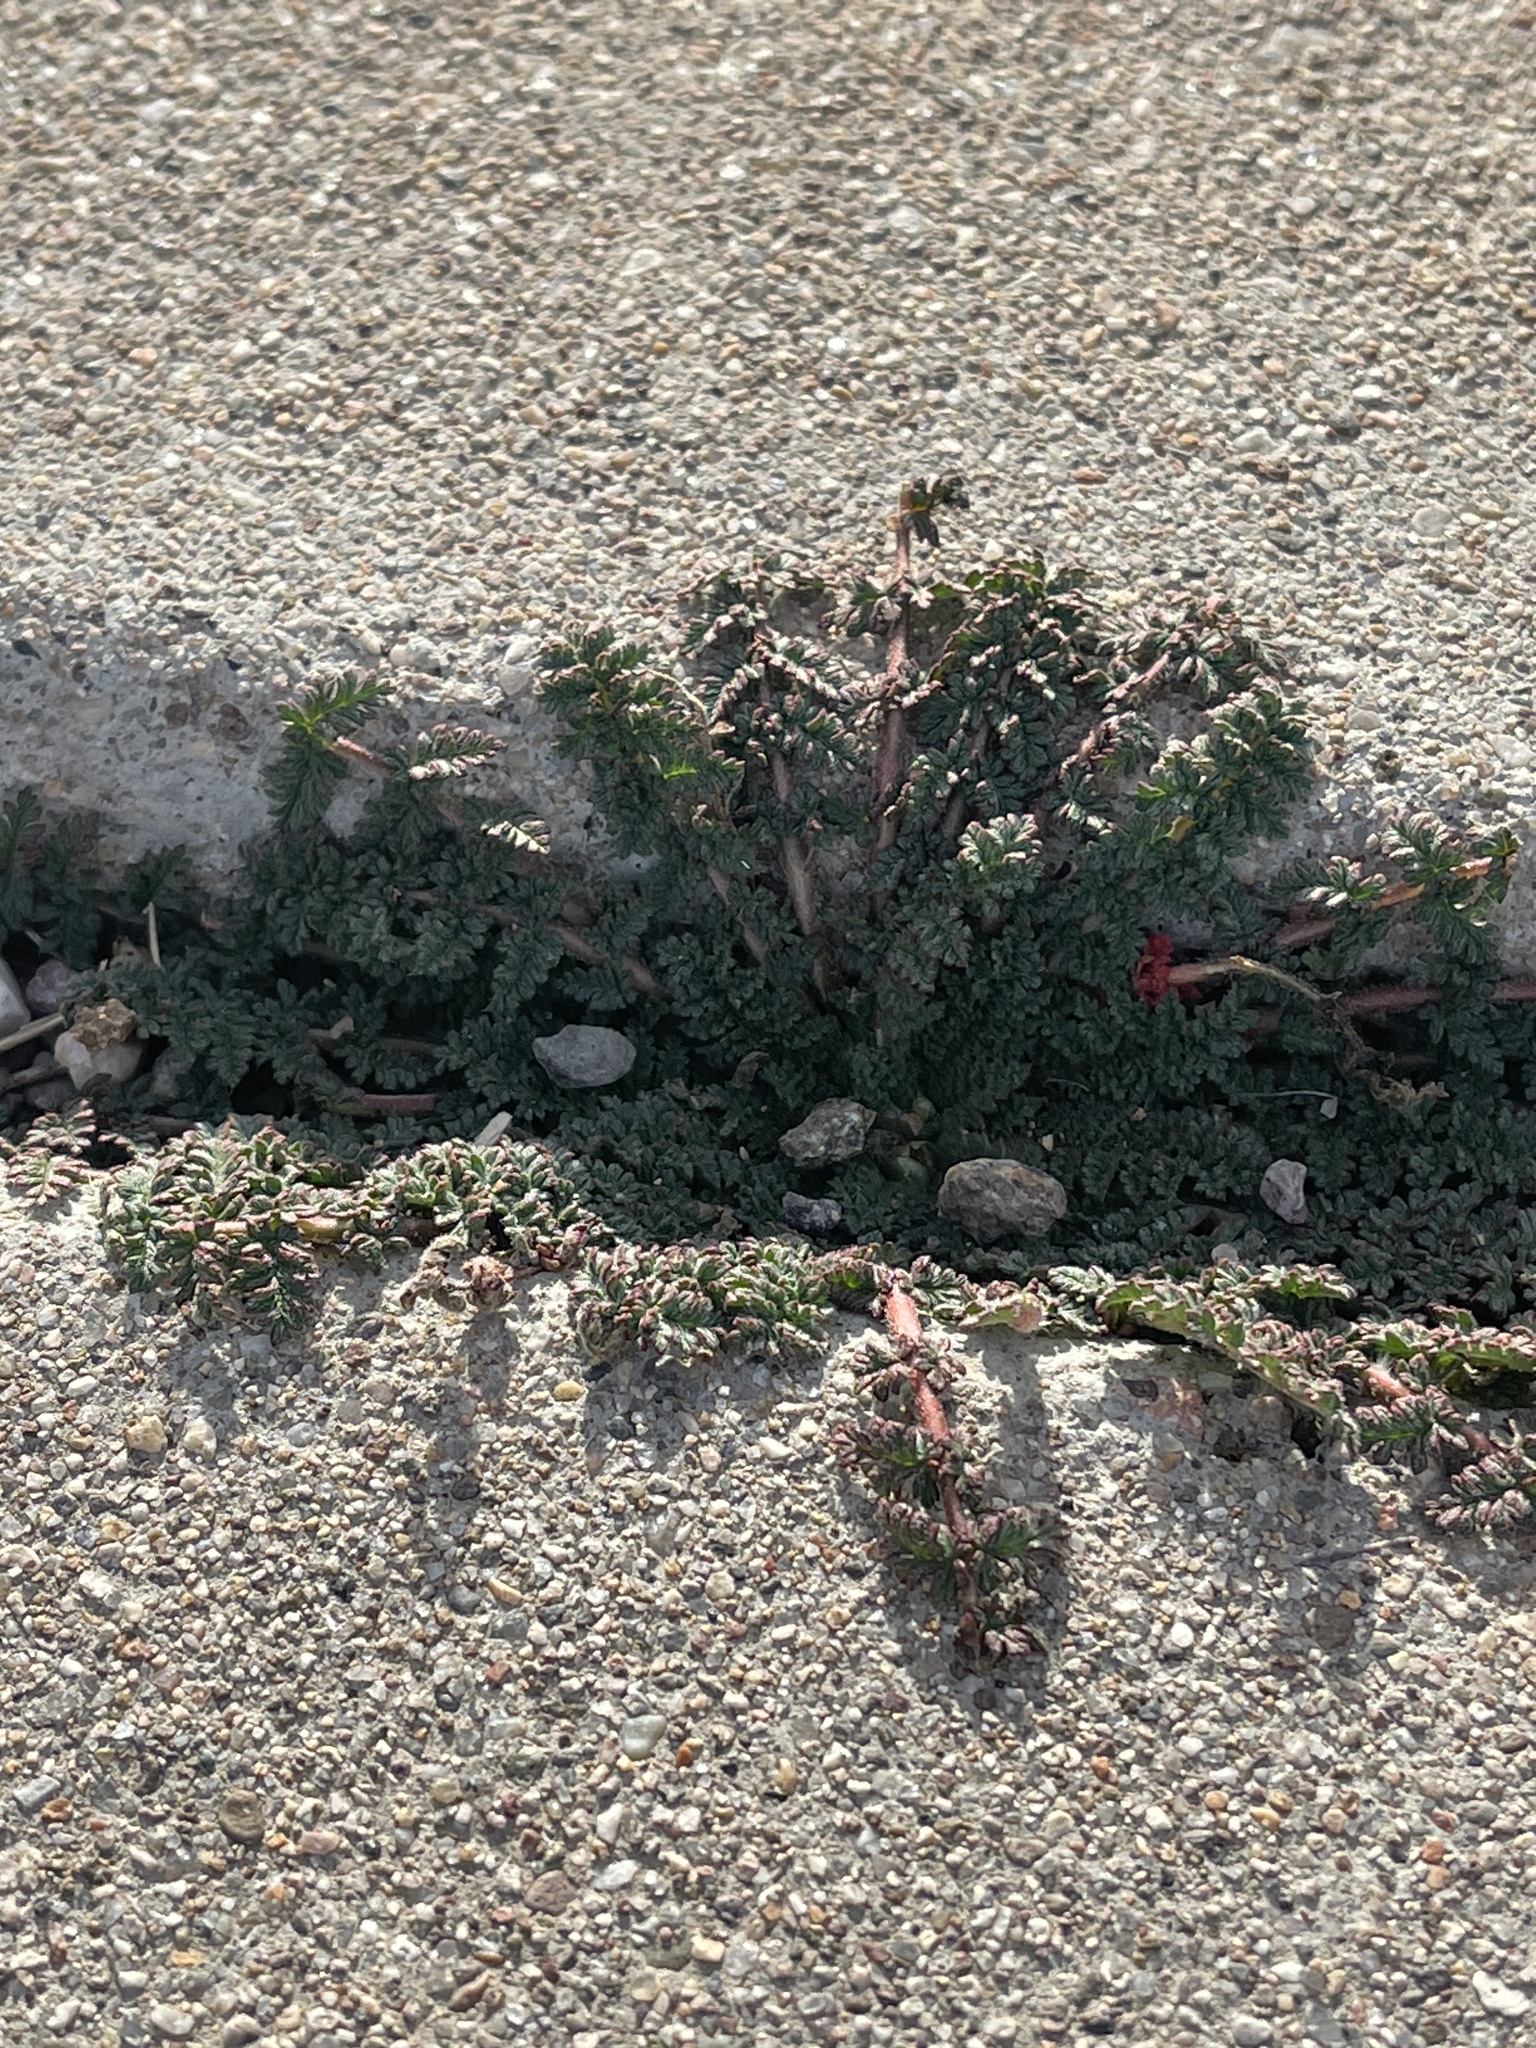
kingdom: Plantae
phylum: Tracheophyta
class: Magnoliopsida
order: Geraniales
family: Geraniaceae
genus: Erodium
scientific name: Erodium cicutarium
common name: Common stork's-bill
